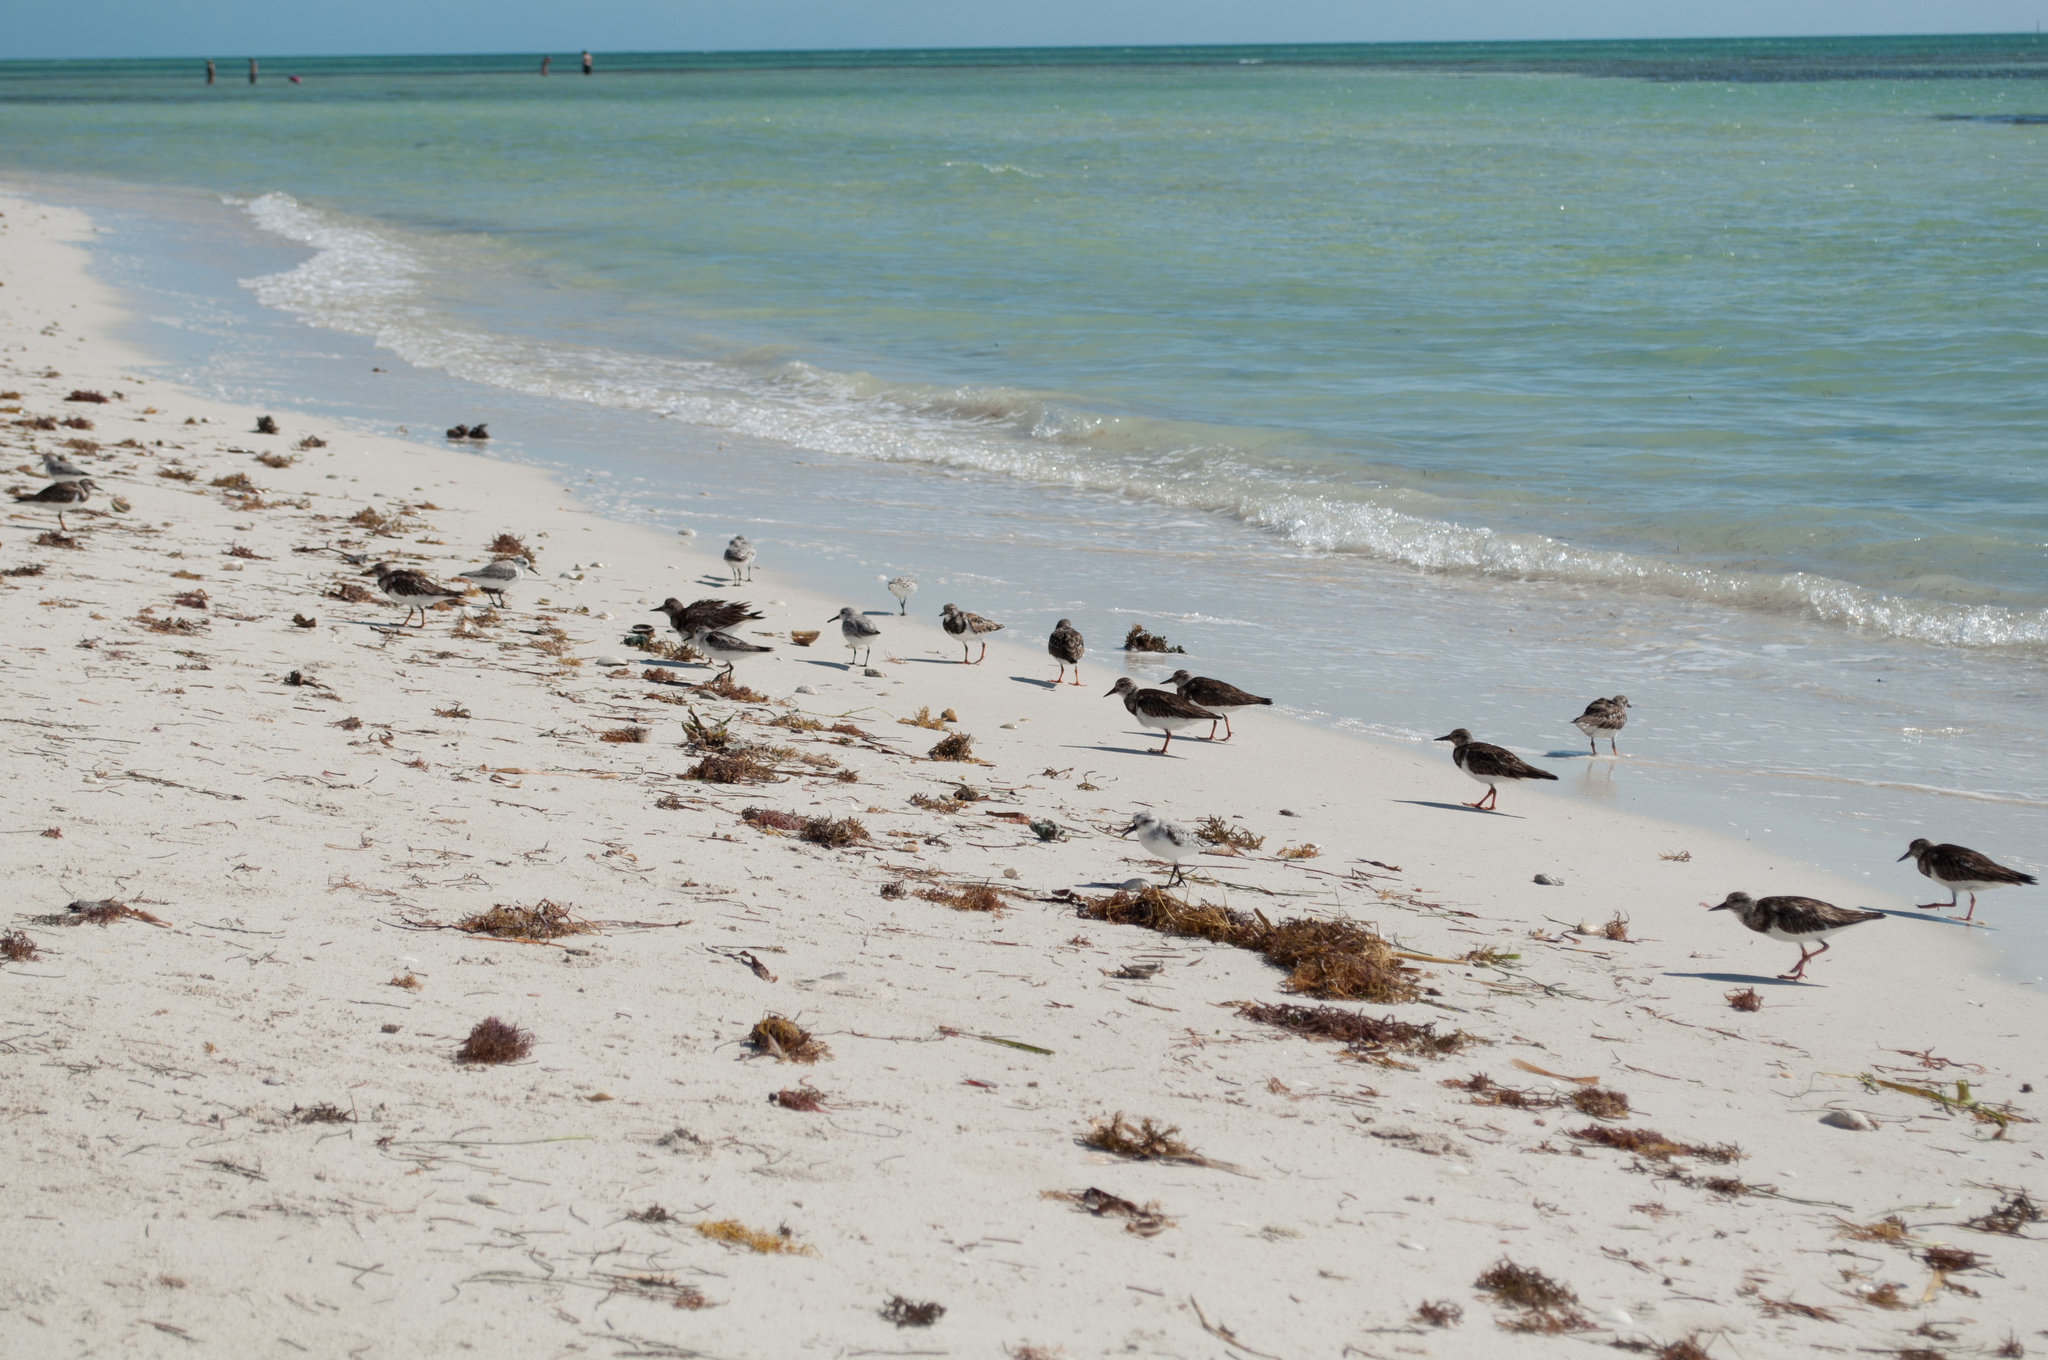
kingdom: Animalia
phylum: Chordata
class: Aves
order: Charadriiformes
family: Scolopacidae
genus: Arenaria
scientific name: Arenaria interpres
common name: Ruddy turnstone
